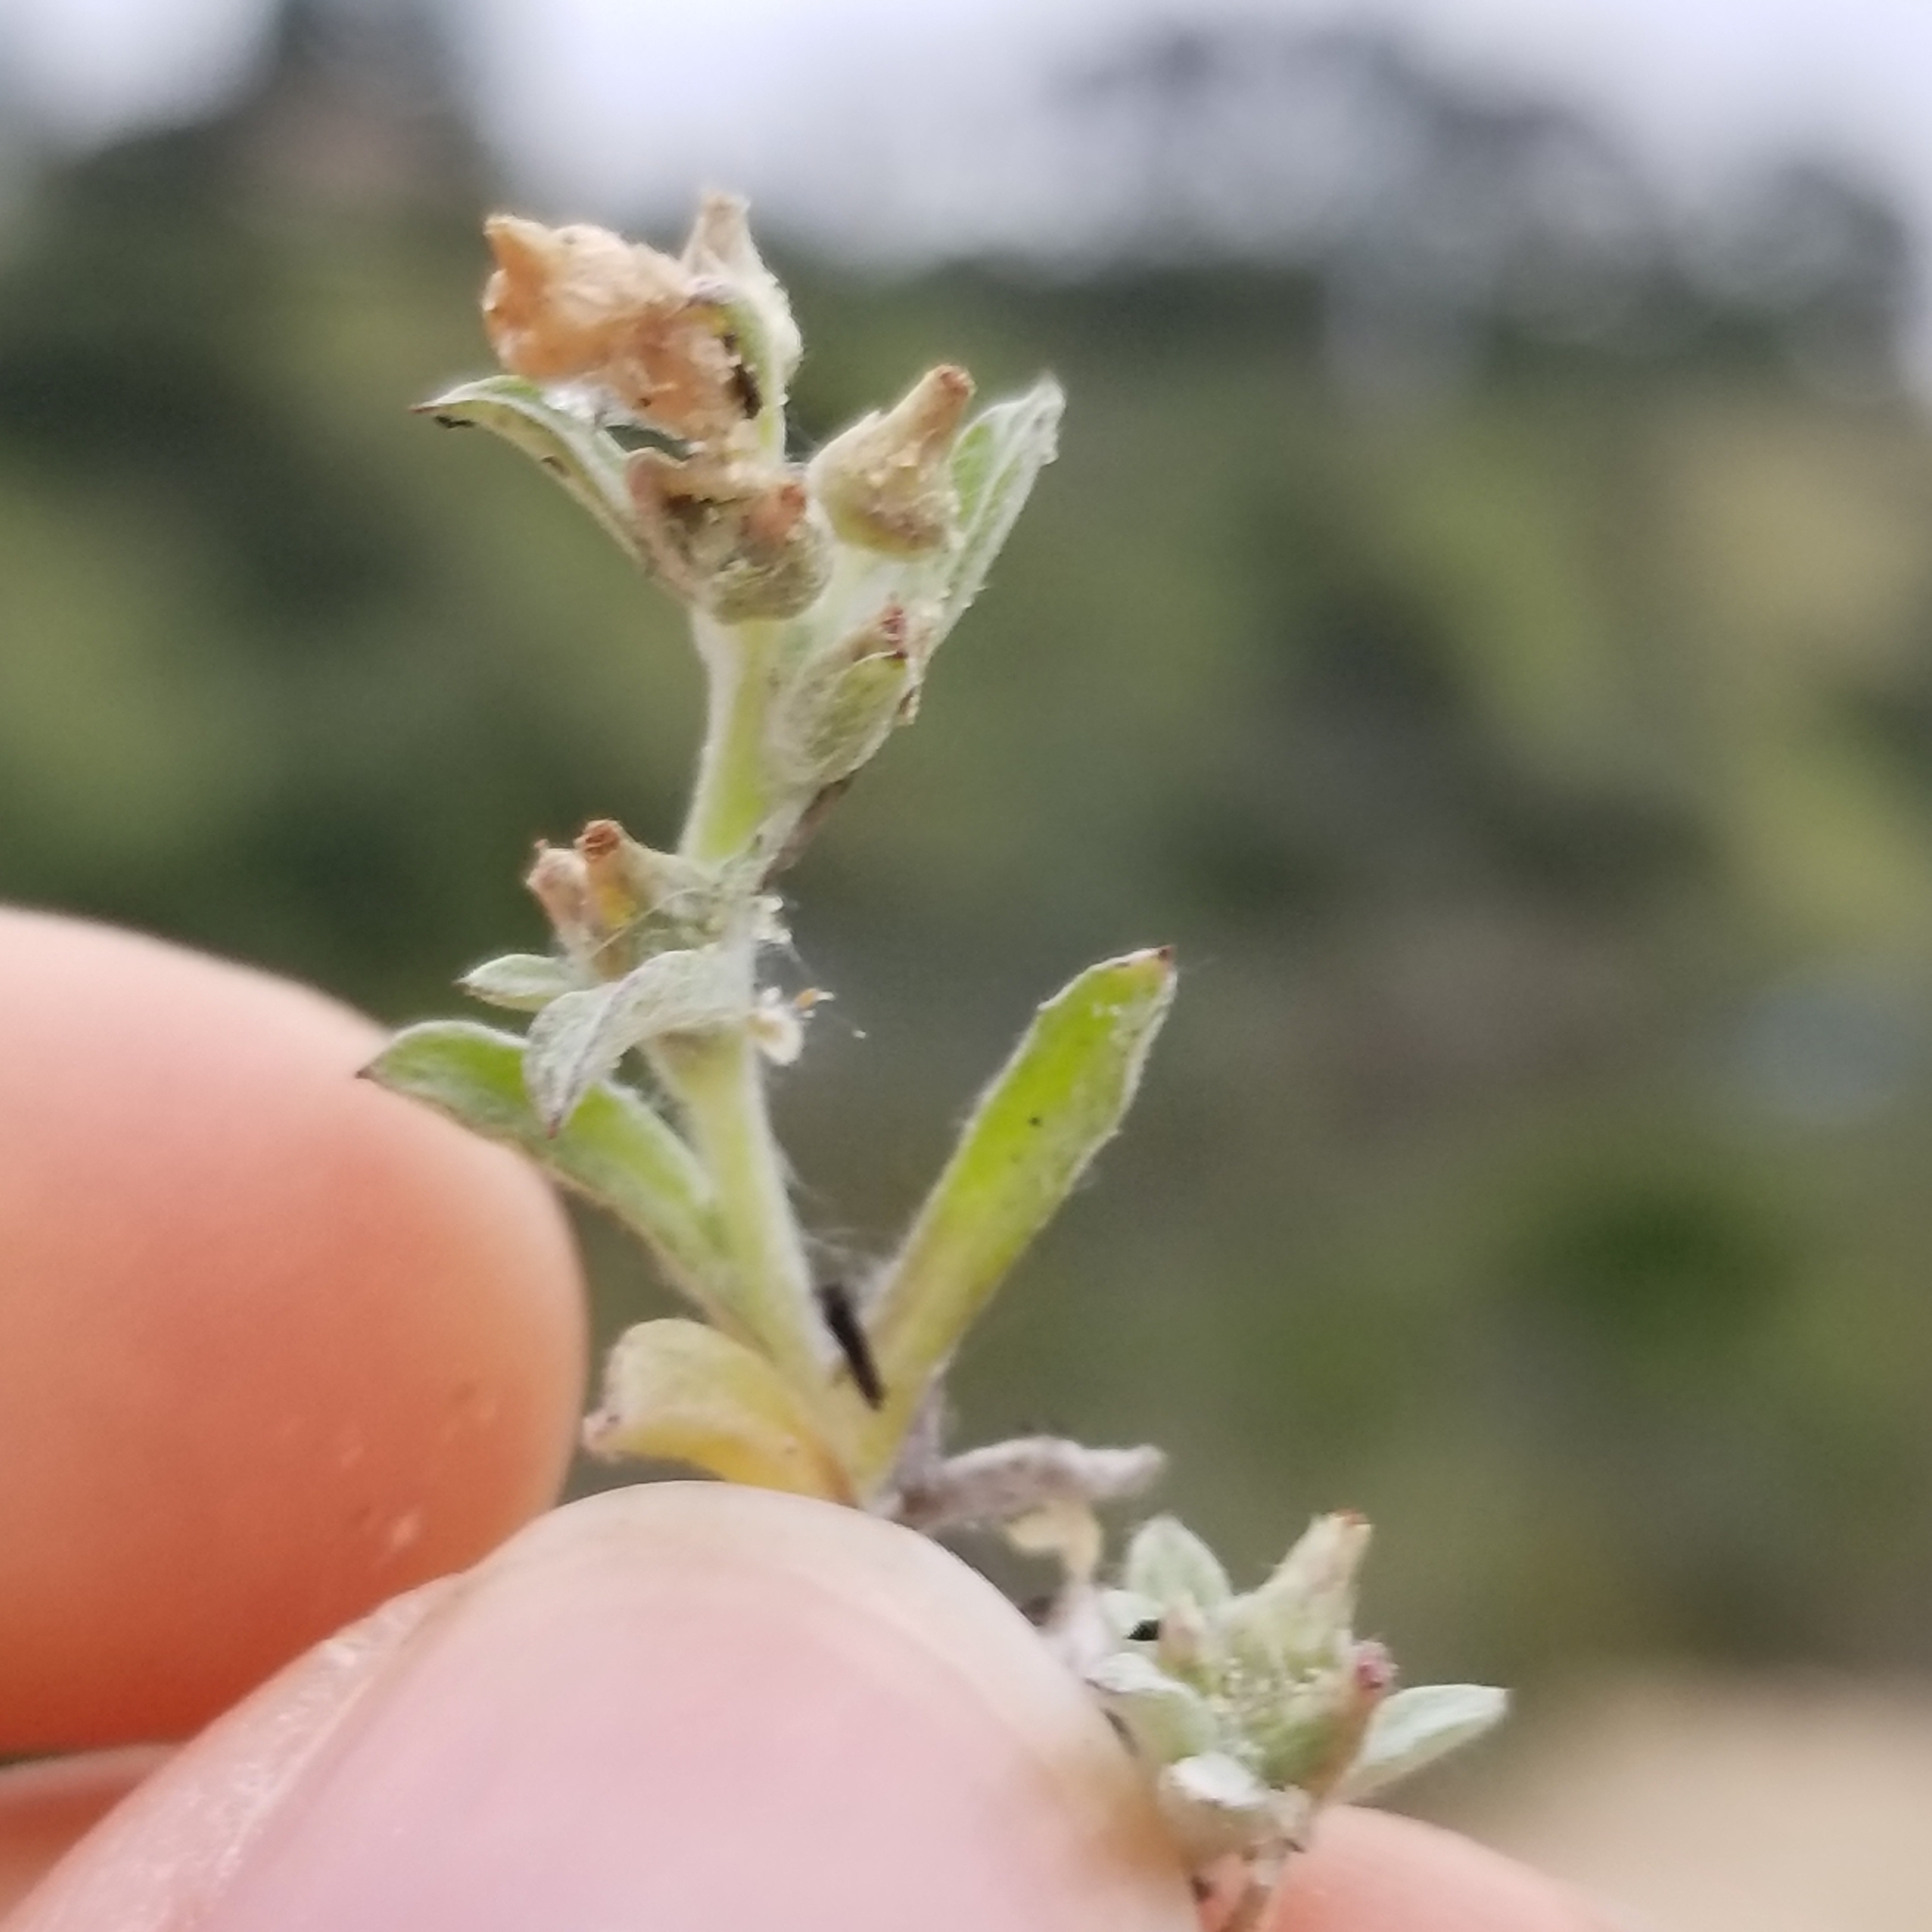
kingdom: Plantae
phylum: Tracheophyta
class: Magnoliopsida
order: Asterales
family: Asteraceae
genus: Gamochaeta
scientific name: Gamochaeta stagnalis
